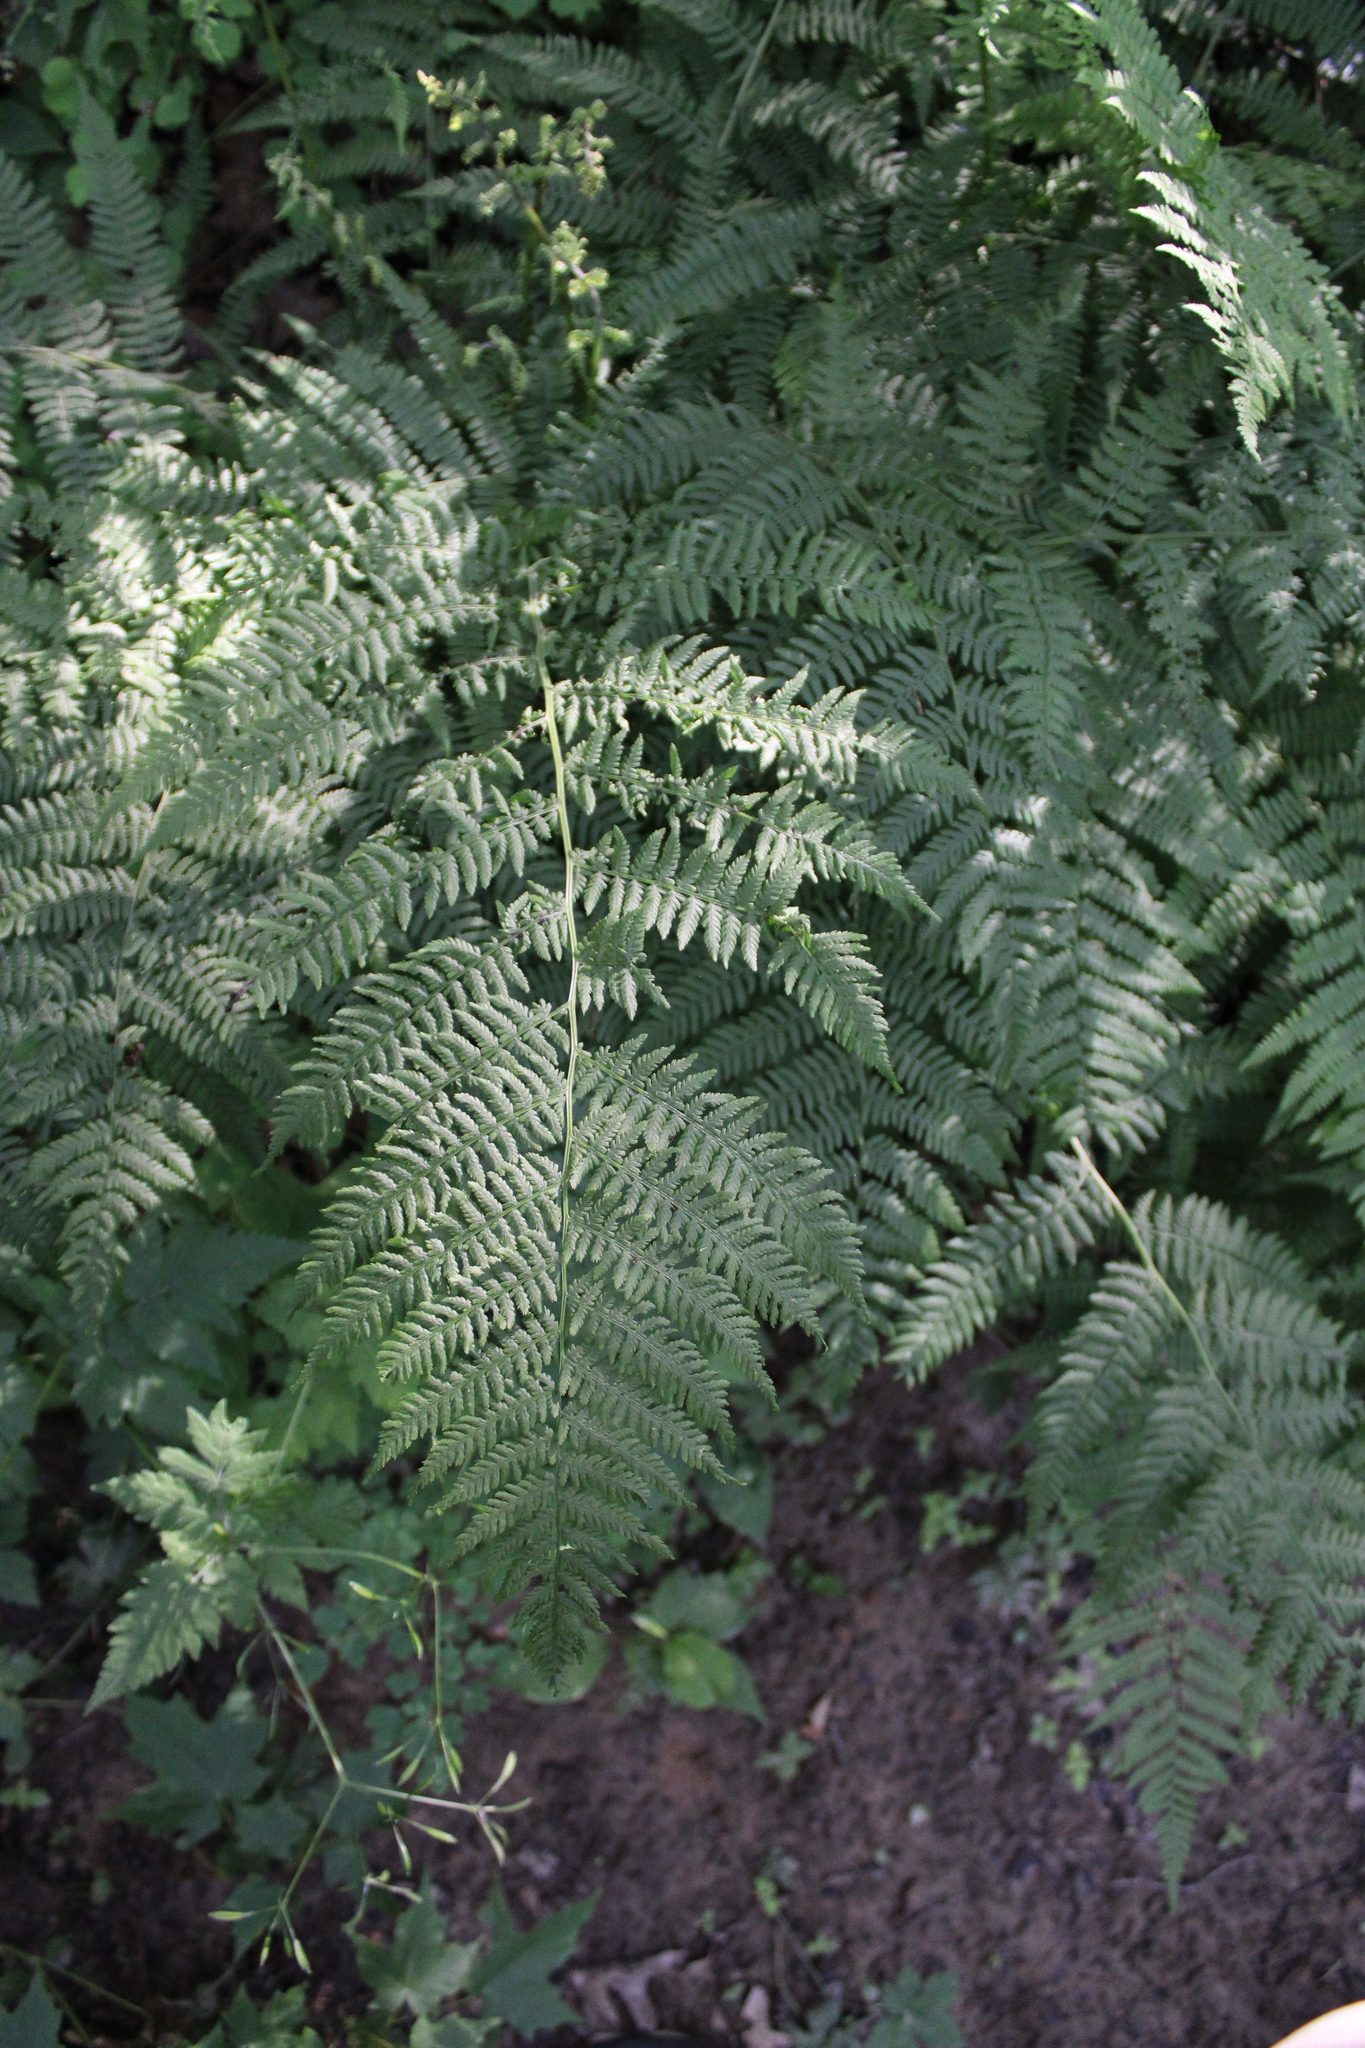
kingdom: Plantae
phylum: Tracheophyta
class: Polypodiopsida
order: Polypodiales
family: Dennstaedtiaceae
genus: Pteridium
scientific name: Pteridium aquilinum
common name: Bracken
